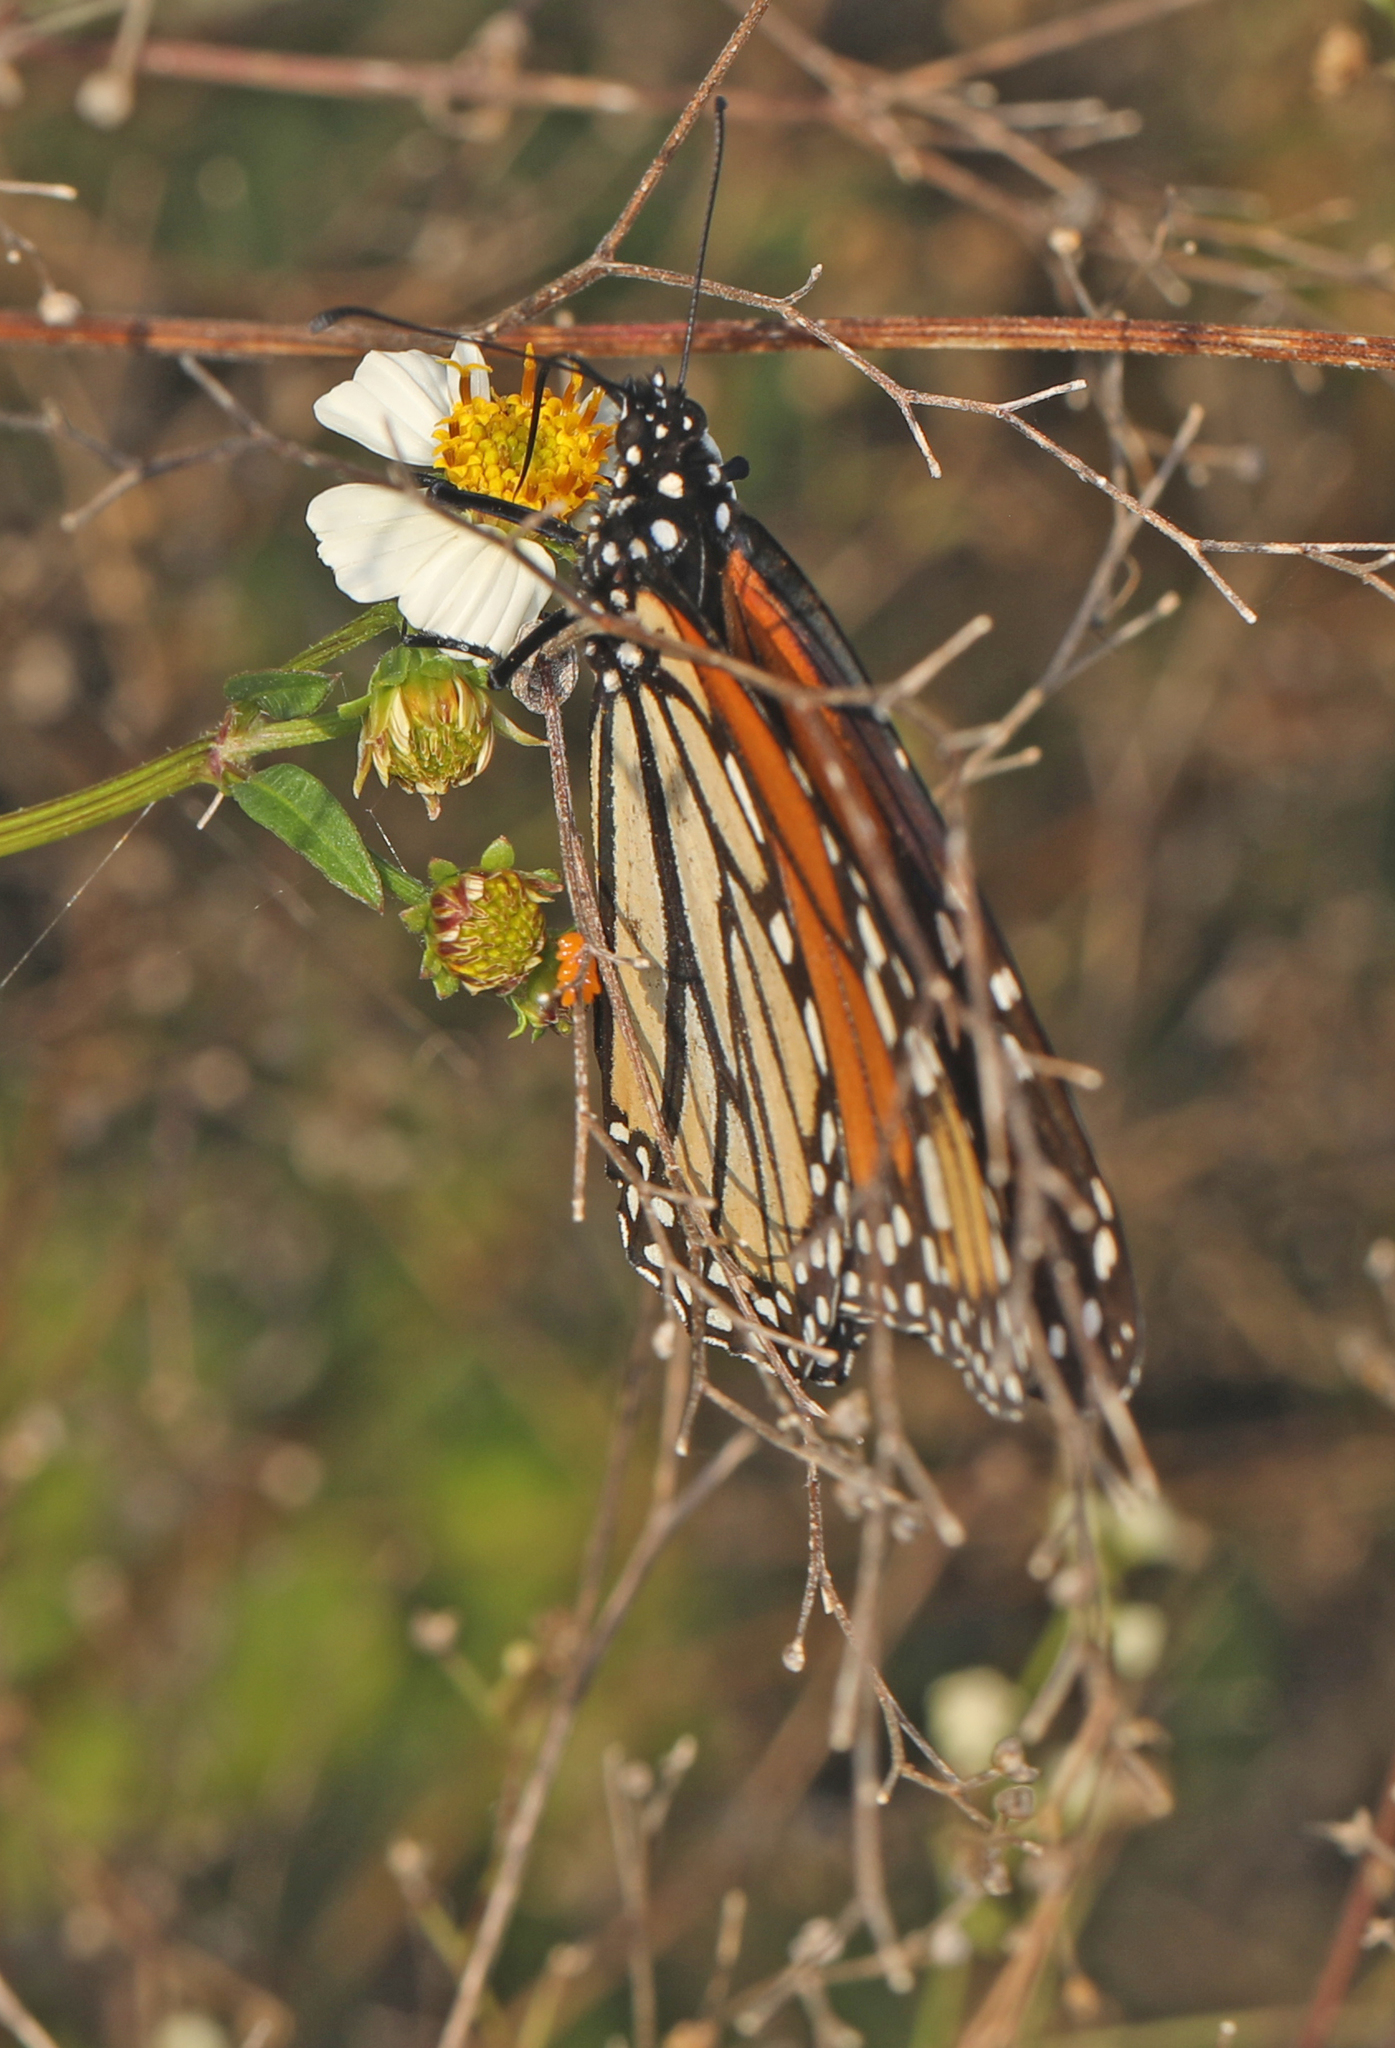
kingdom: Animalia
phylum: Arthropoda
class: Insecta
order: Lepidoptera
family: Nymphalidae
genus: Danaus
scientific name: Danaus plexippus
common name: Monarch
